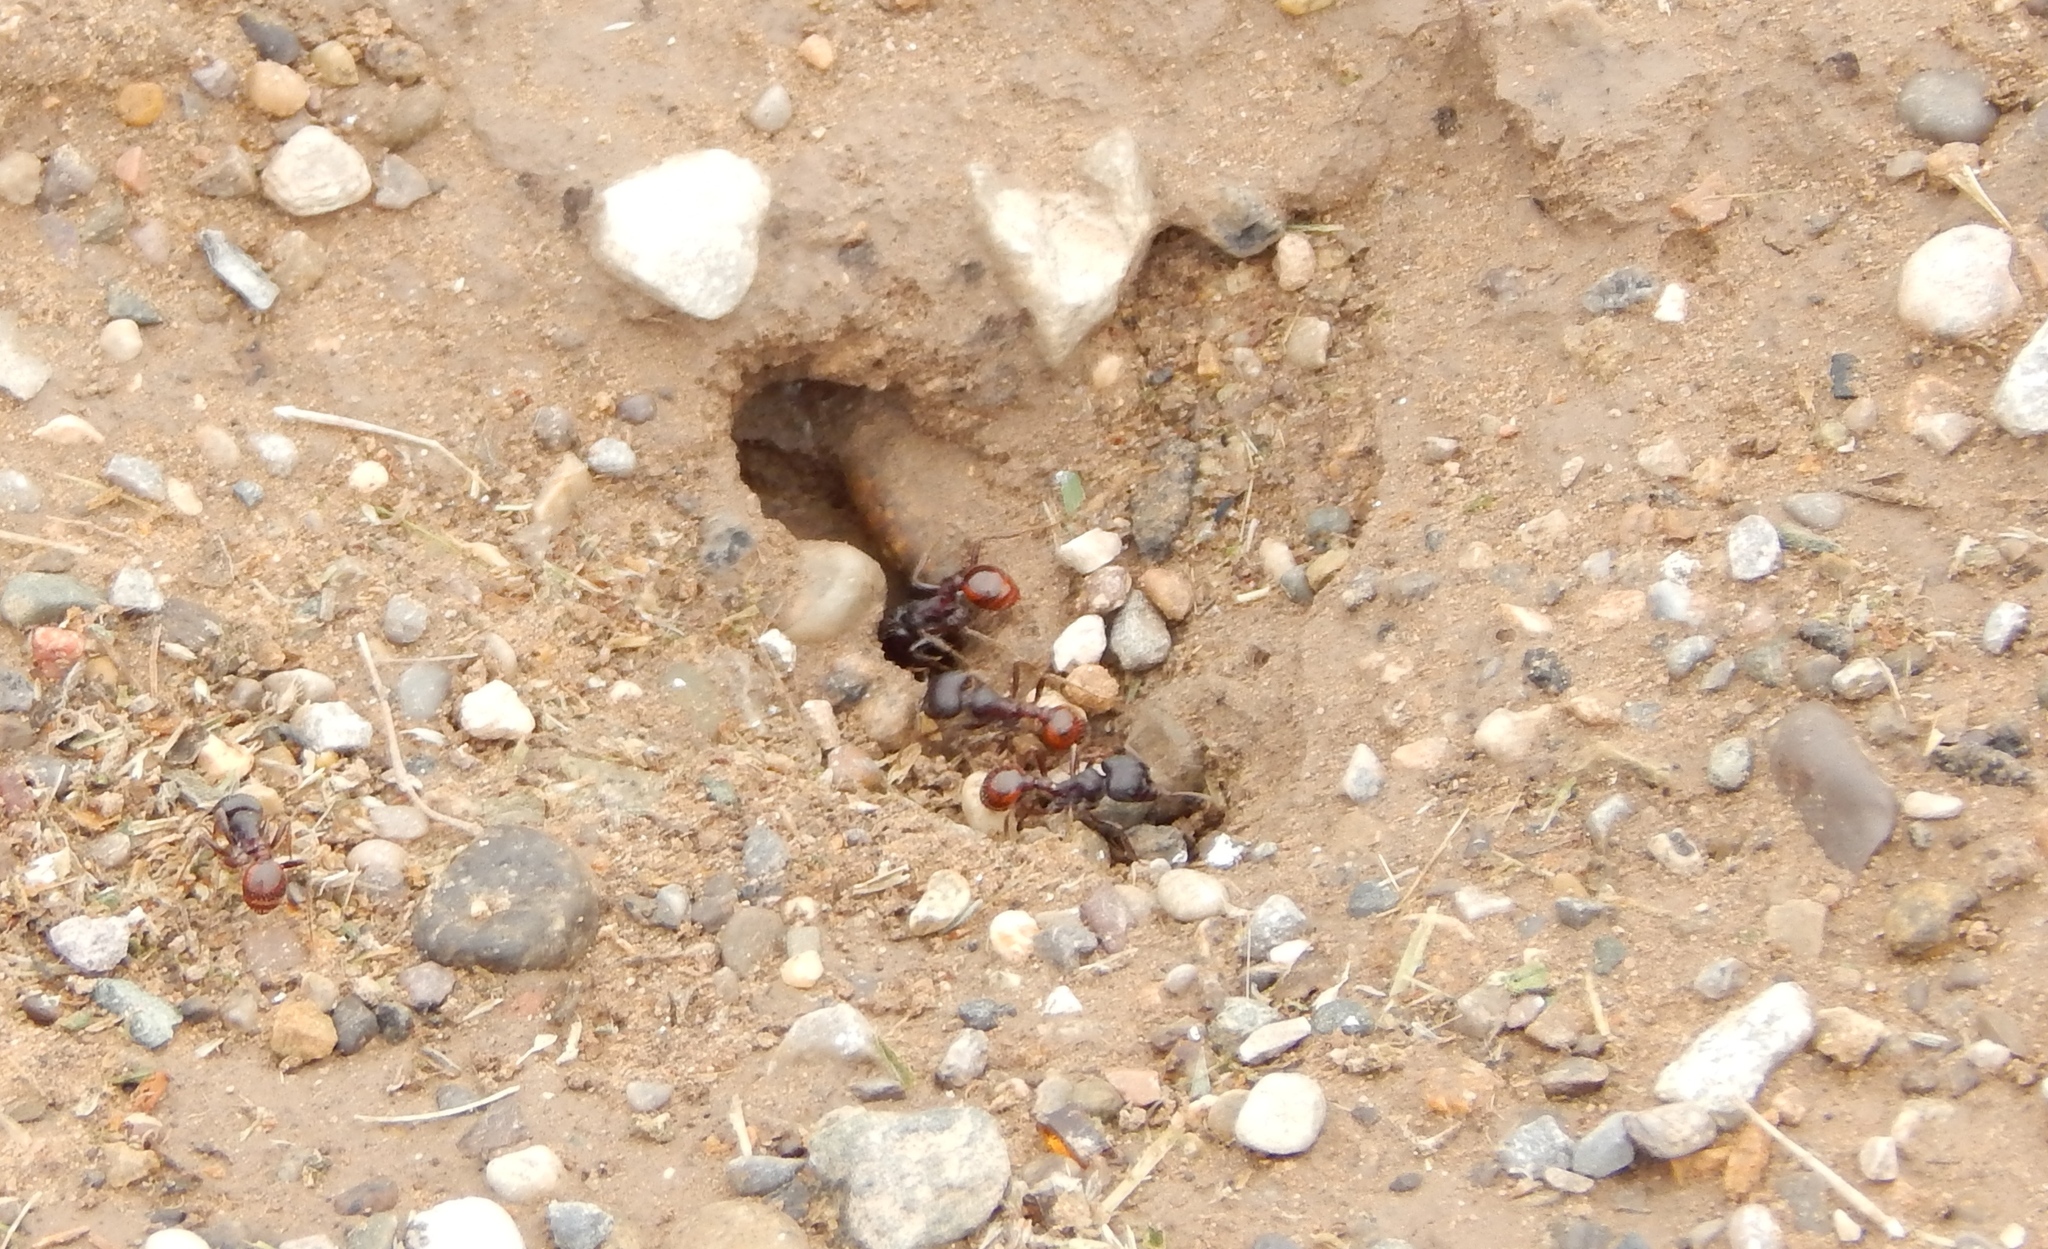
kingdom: Animalia
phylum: Arthropoda
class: Insecta
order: Hymenoptera
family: Formicidae
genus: Pogonomyrmex
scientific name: Pogonomyrmex rugosus
